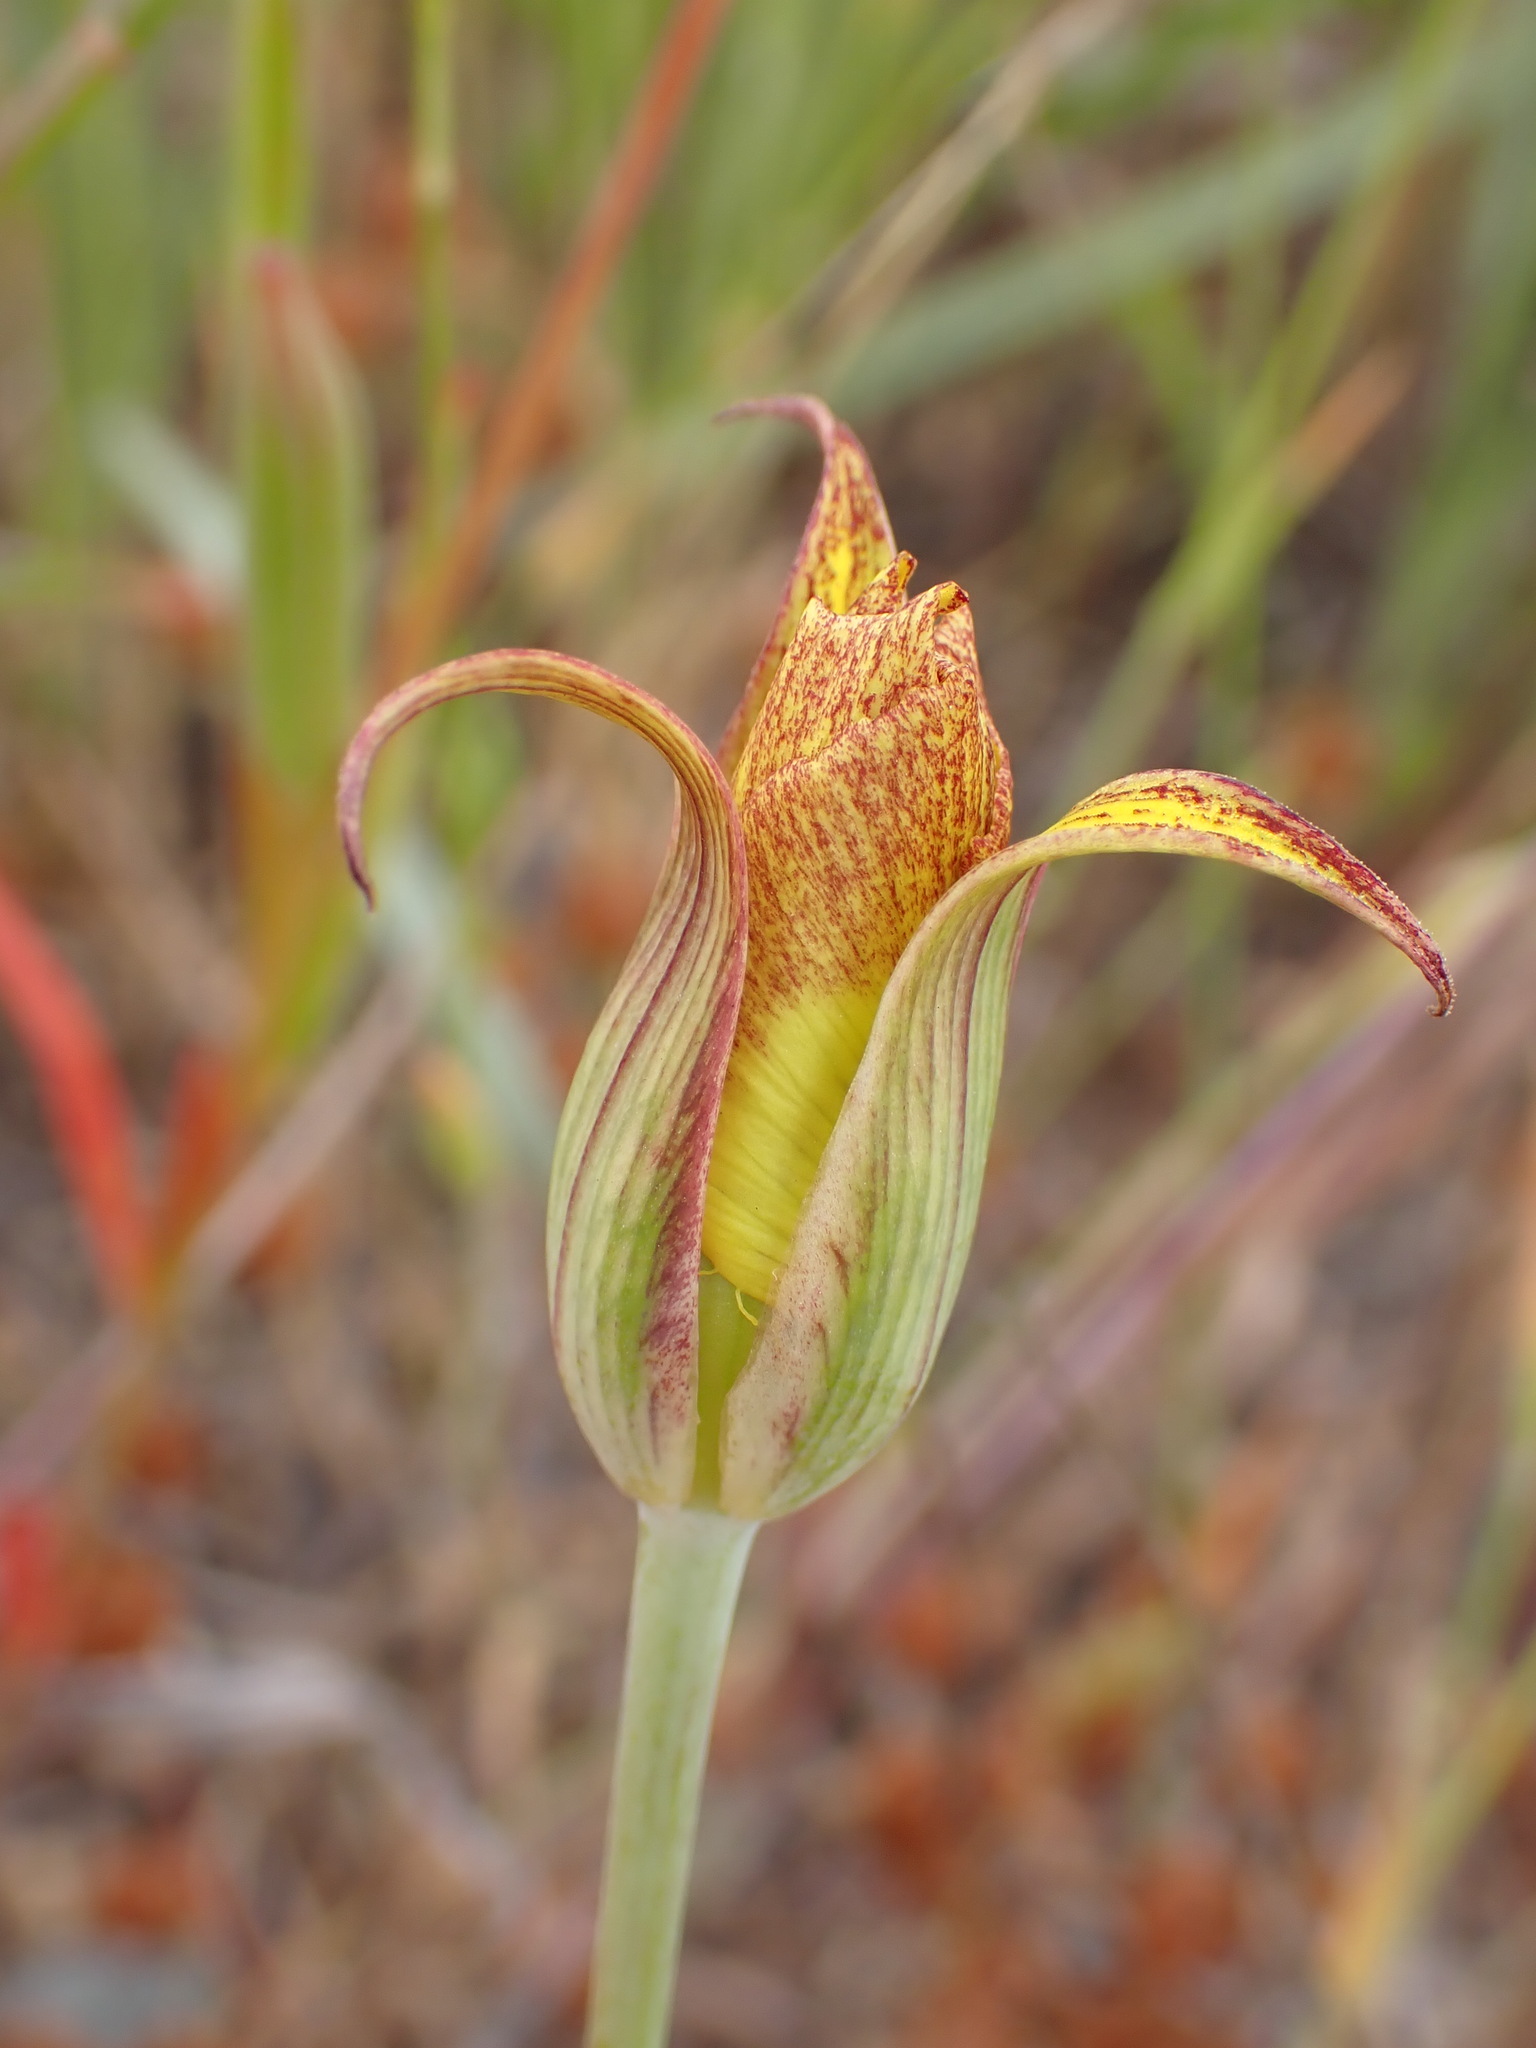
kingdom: Plantae
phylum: Tracheophyta
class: Liliopsida
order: Liliales
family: Liliaceae
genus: Calochortus
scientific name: Calochortus luteus
